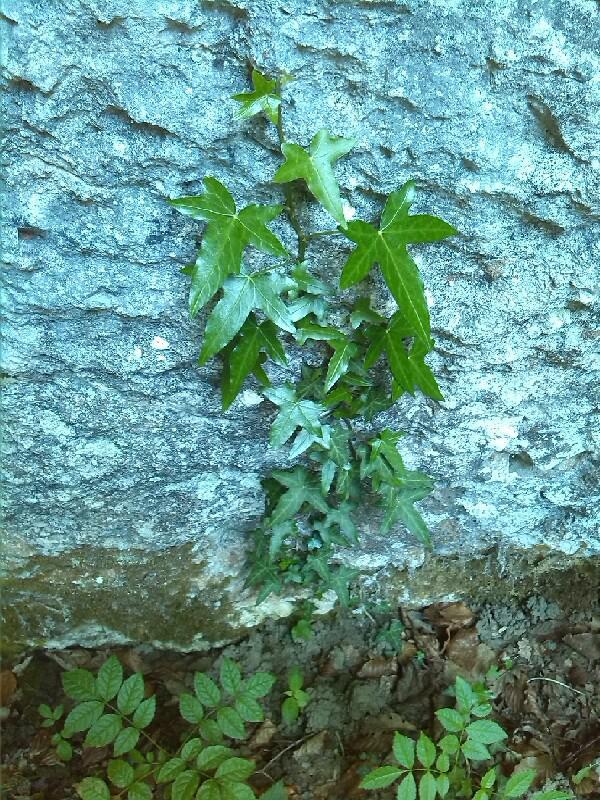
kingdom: Plantae
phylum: Tracheophyta
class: Magnoliopsida
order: Apiales
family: Araliaceae
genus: Hedera
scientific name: Hedera helix
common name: Ivy
